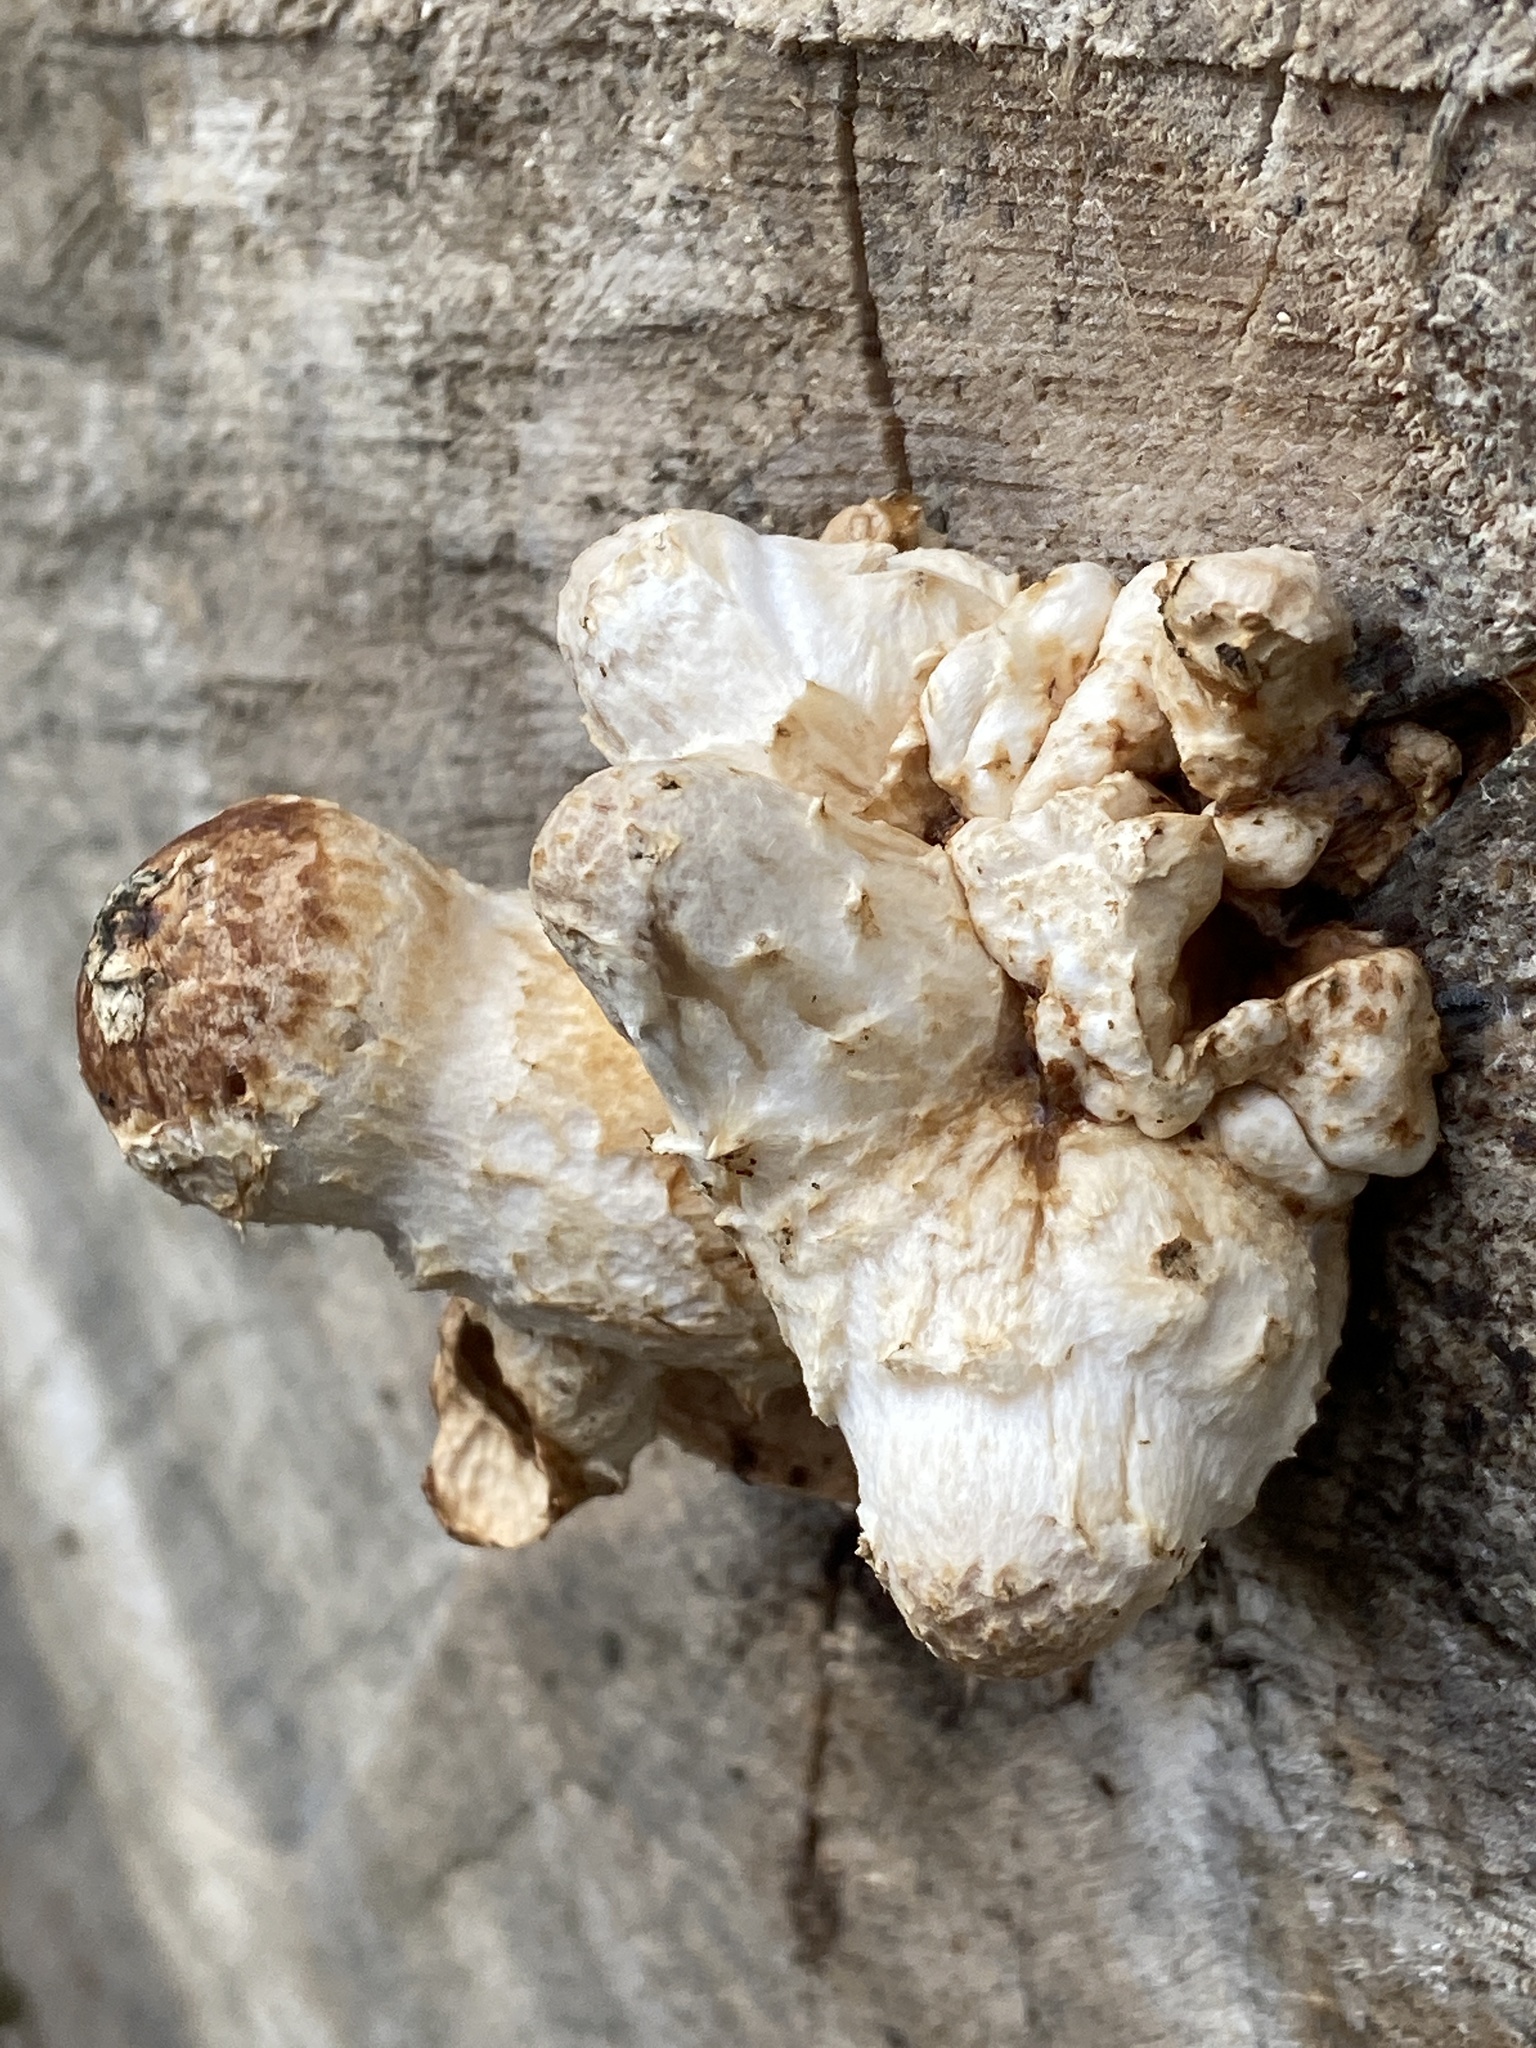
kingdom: Fungi
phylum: Basidiomycota
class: Agaricomycetes
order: Agaricales
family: Strophariaceae
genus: Pholiota
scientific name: Pholiota populnea
